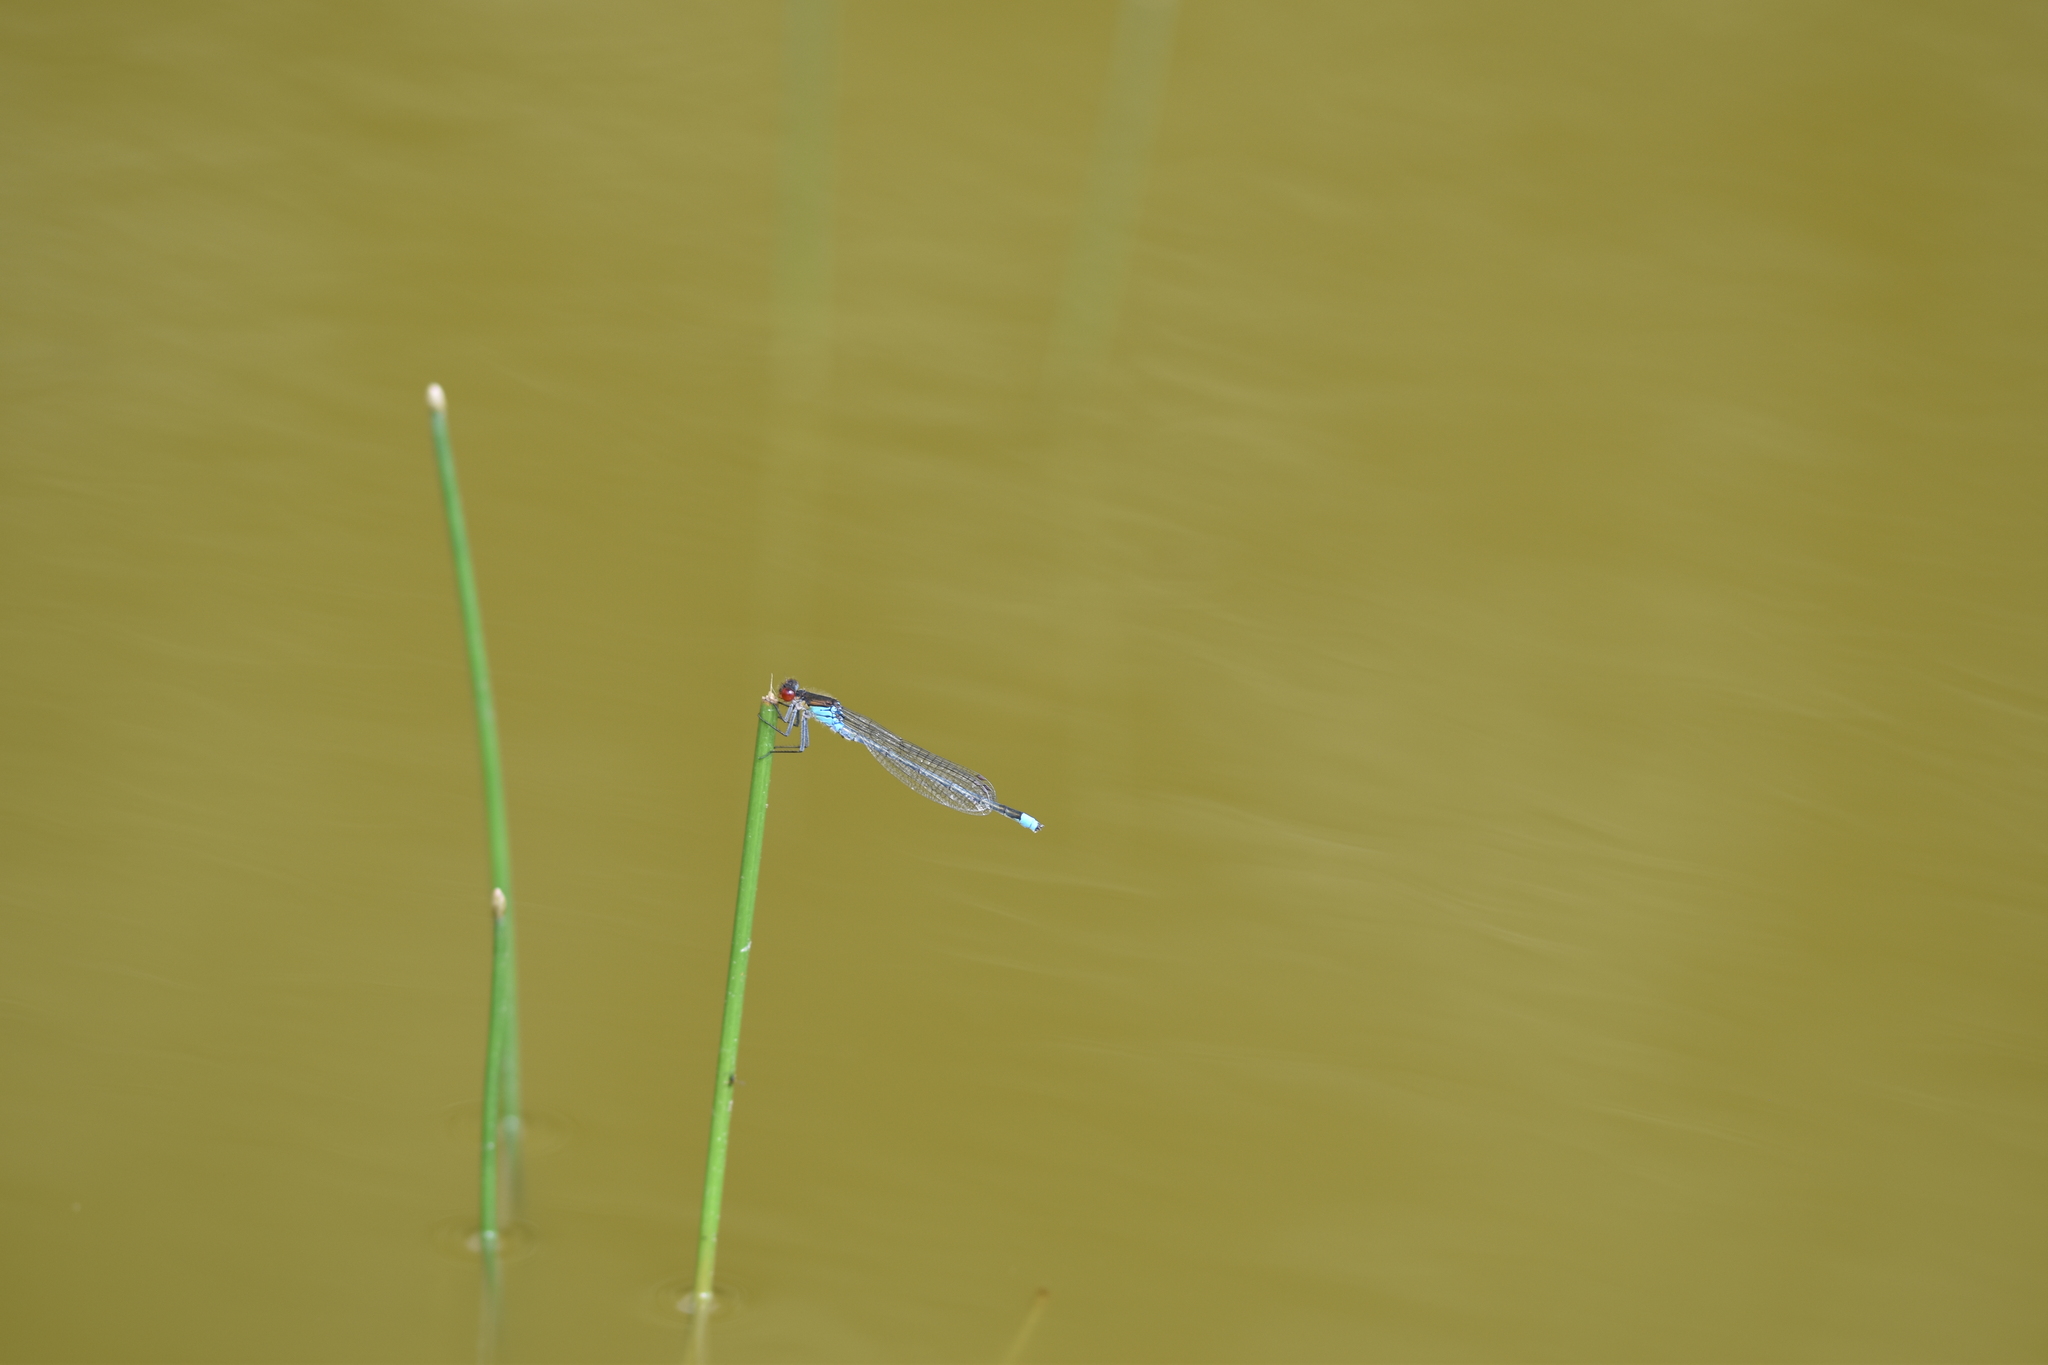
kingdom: Animalia
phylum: Arthropoda
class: Insecta
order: Odonata
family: Coenagrionidae
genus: Erythromma
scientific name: Erythromma najas
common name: Red-eyed damselfly
